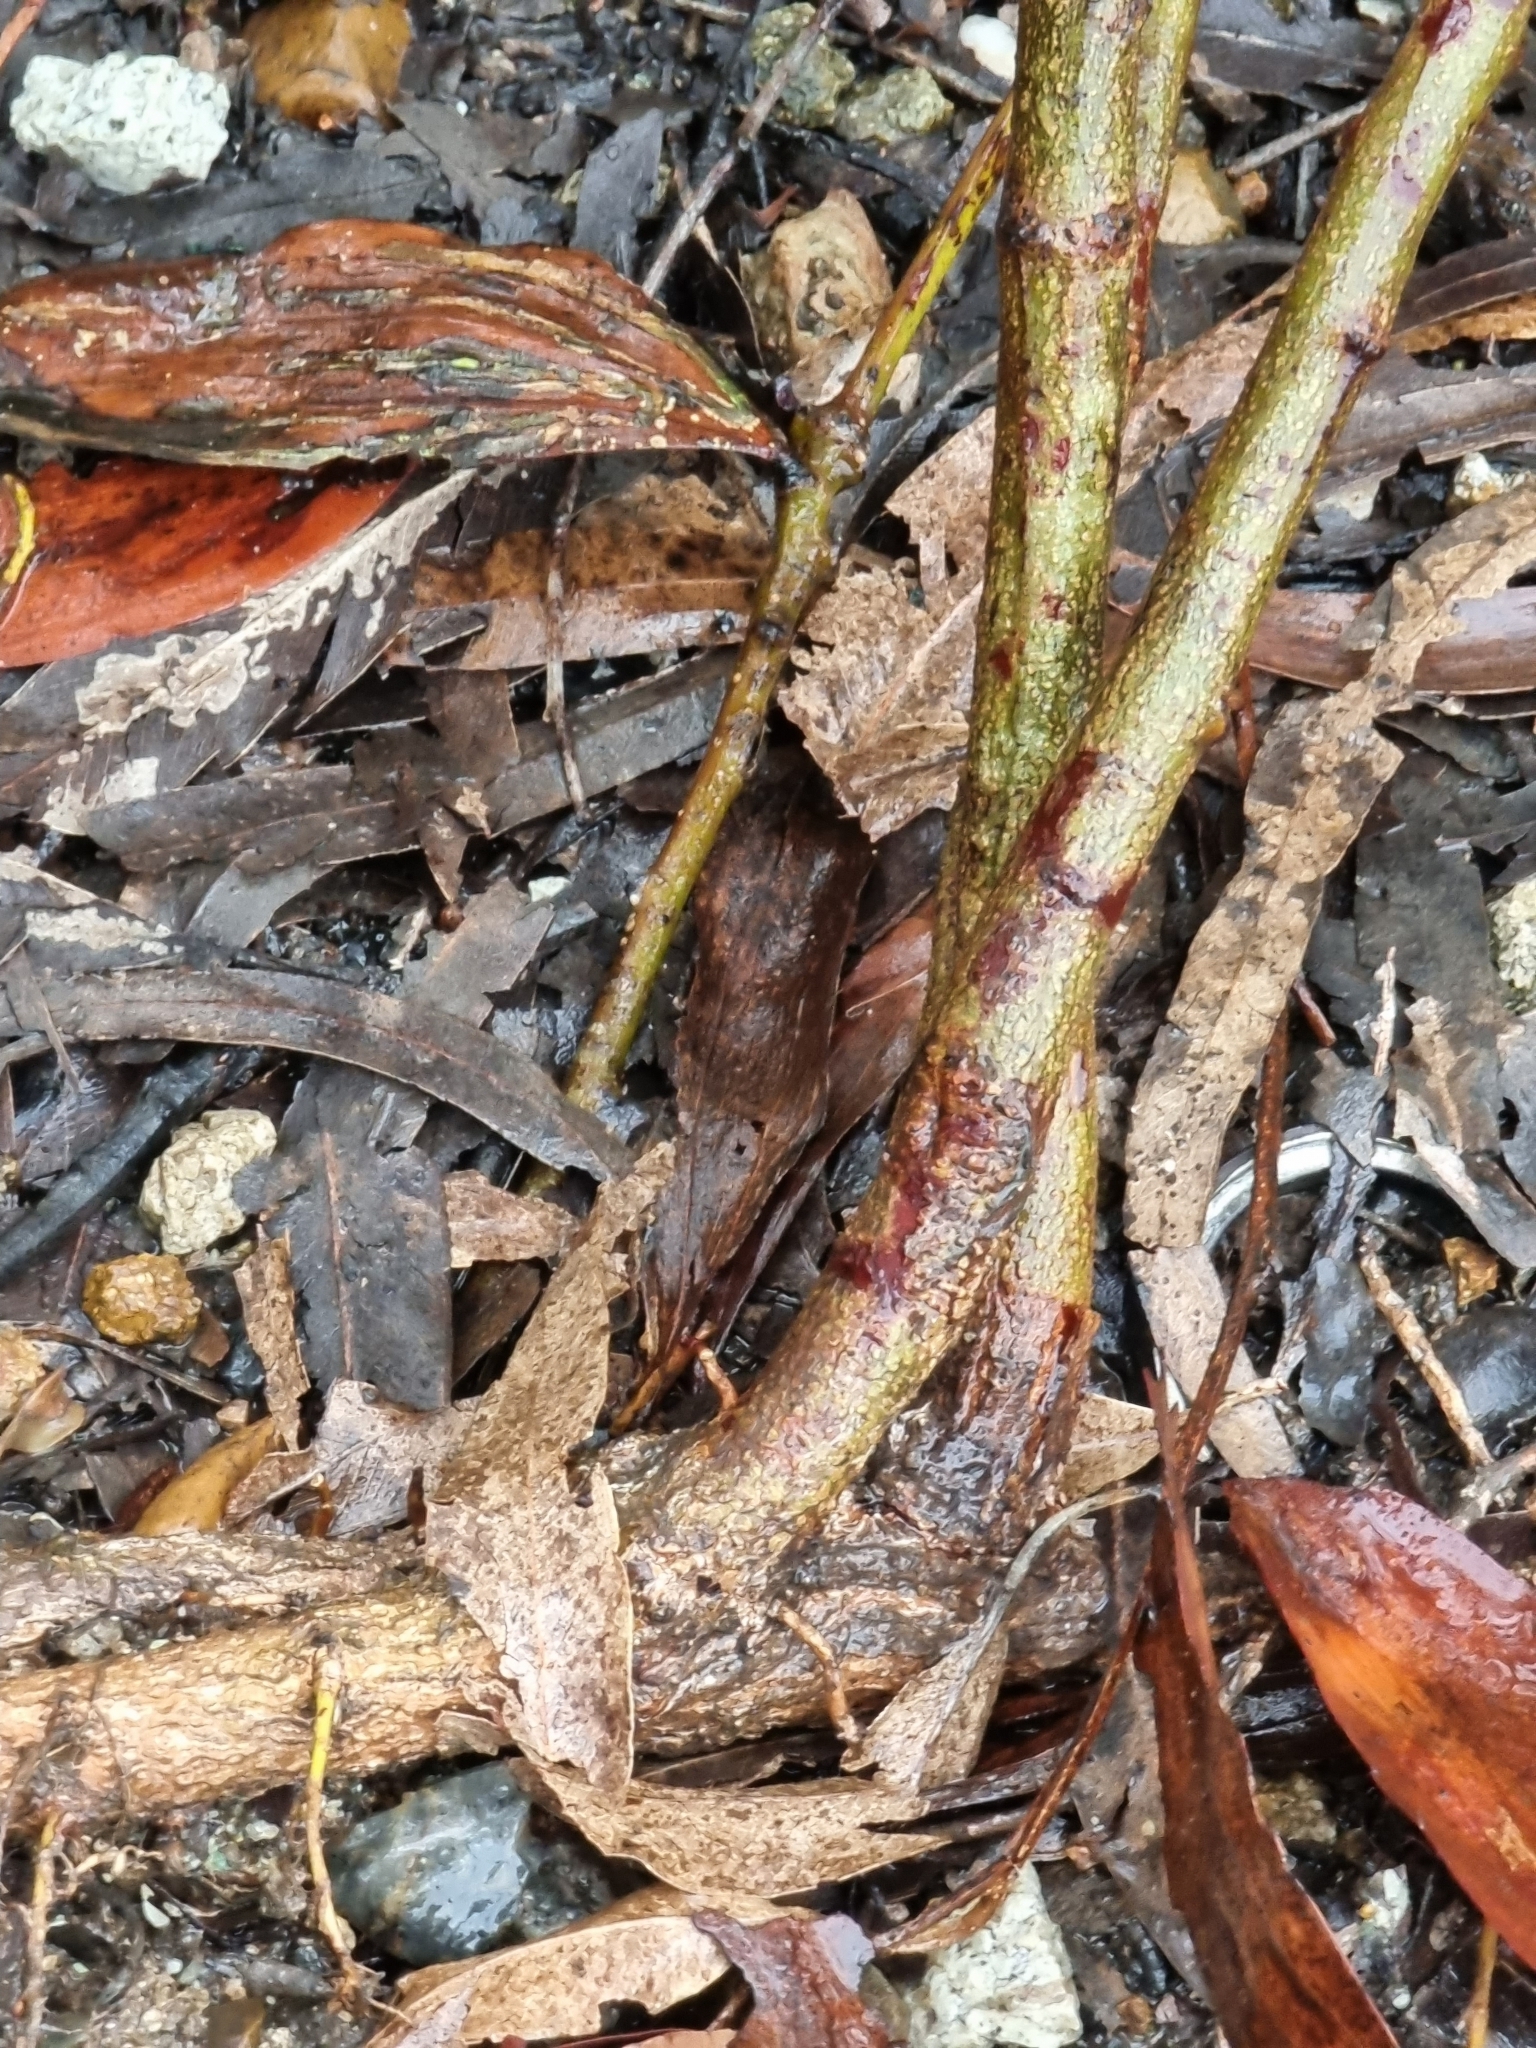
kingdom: Plantae
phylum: Tracheophyta
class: Magnoliopsida
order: Fabales
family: Fabaceae
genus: Acacia
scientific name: Acacia leiocalyx
